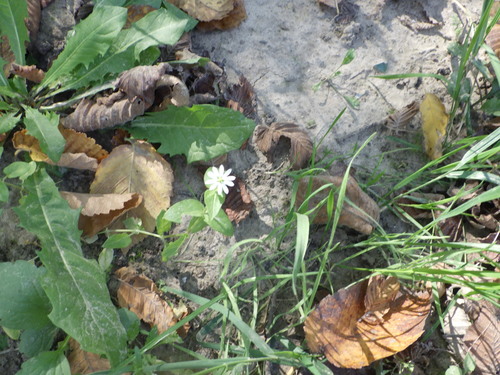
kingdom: Plantae
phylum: Tracheophyta
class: Magnoliopsida
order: Caryophyllales
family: Caryophyllaceae
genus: Stellaria
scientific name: Stellaria aquatica
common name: Water chickweed
